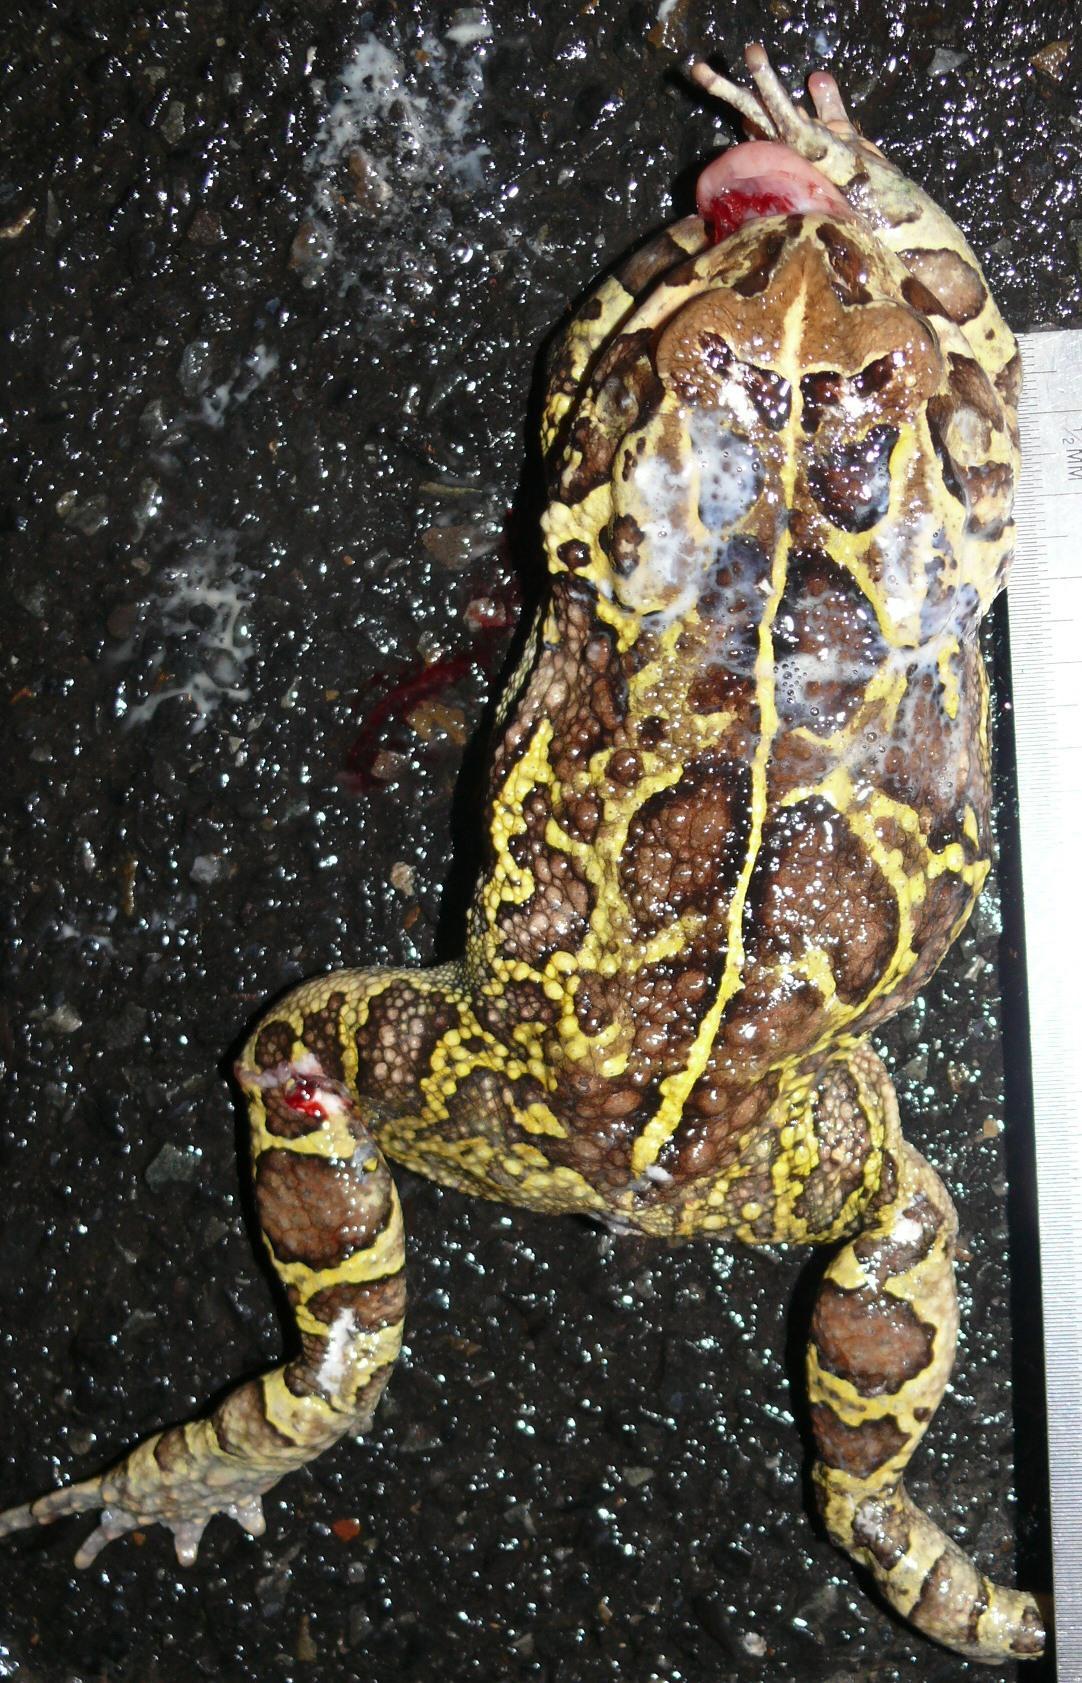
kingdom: Animalia
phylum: Chordata
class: Amphibia
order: Anura
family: Bufonidae
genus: Sclerophrys
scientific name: Sclerophrys pantherina
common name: Panther toad
